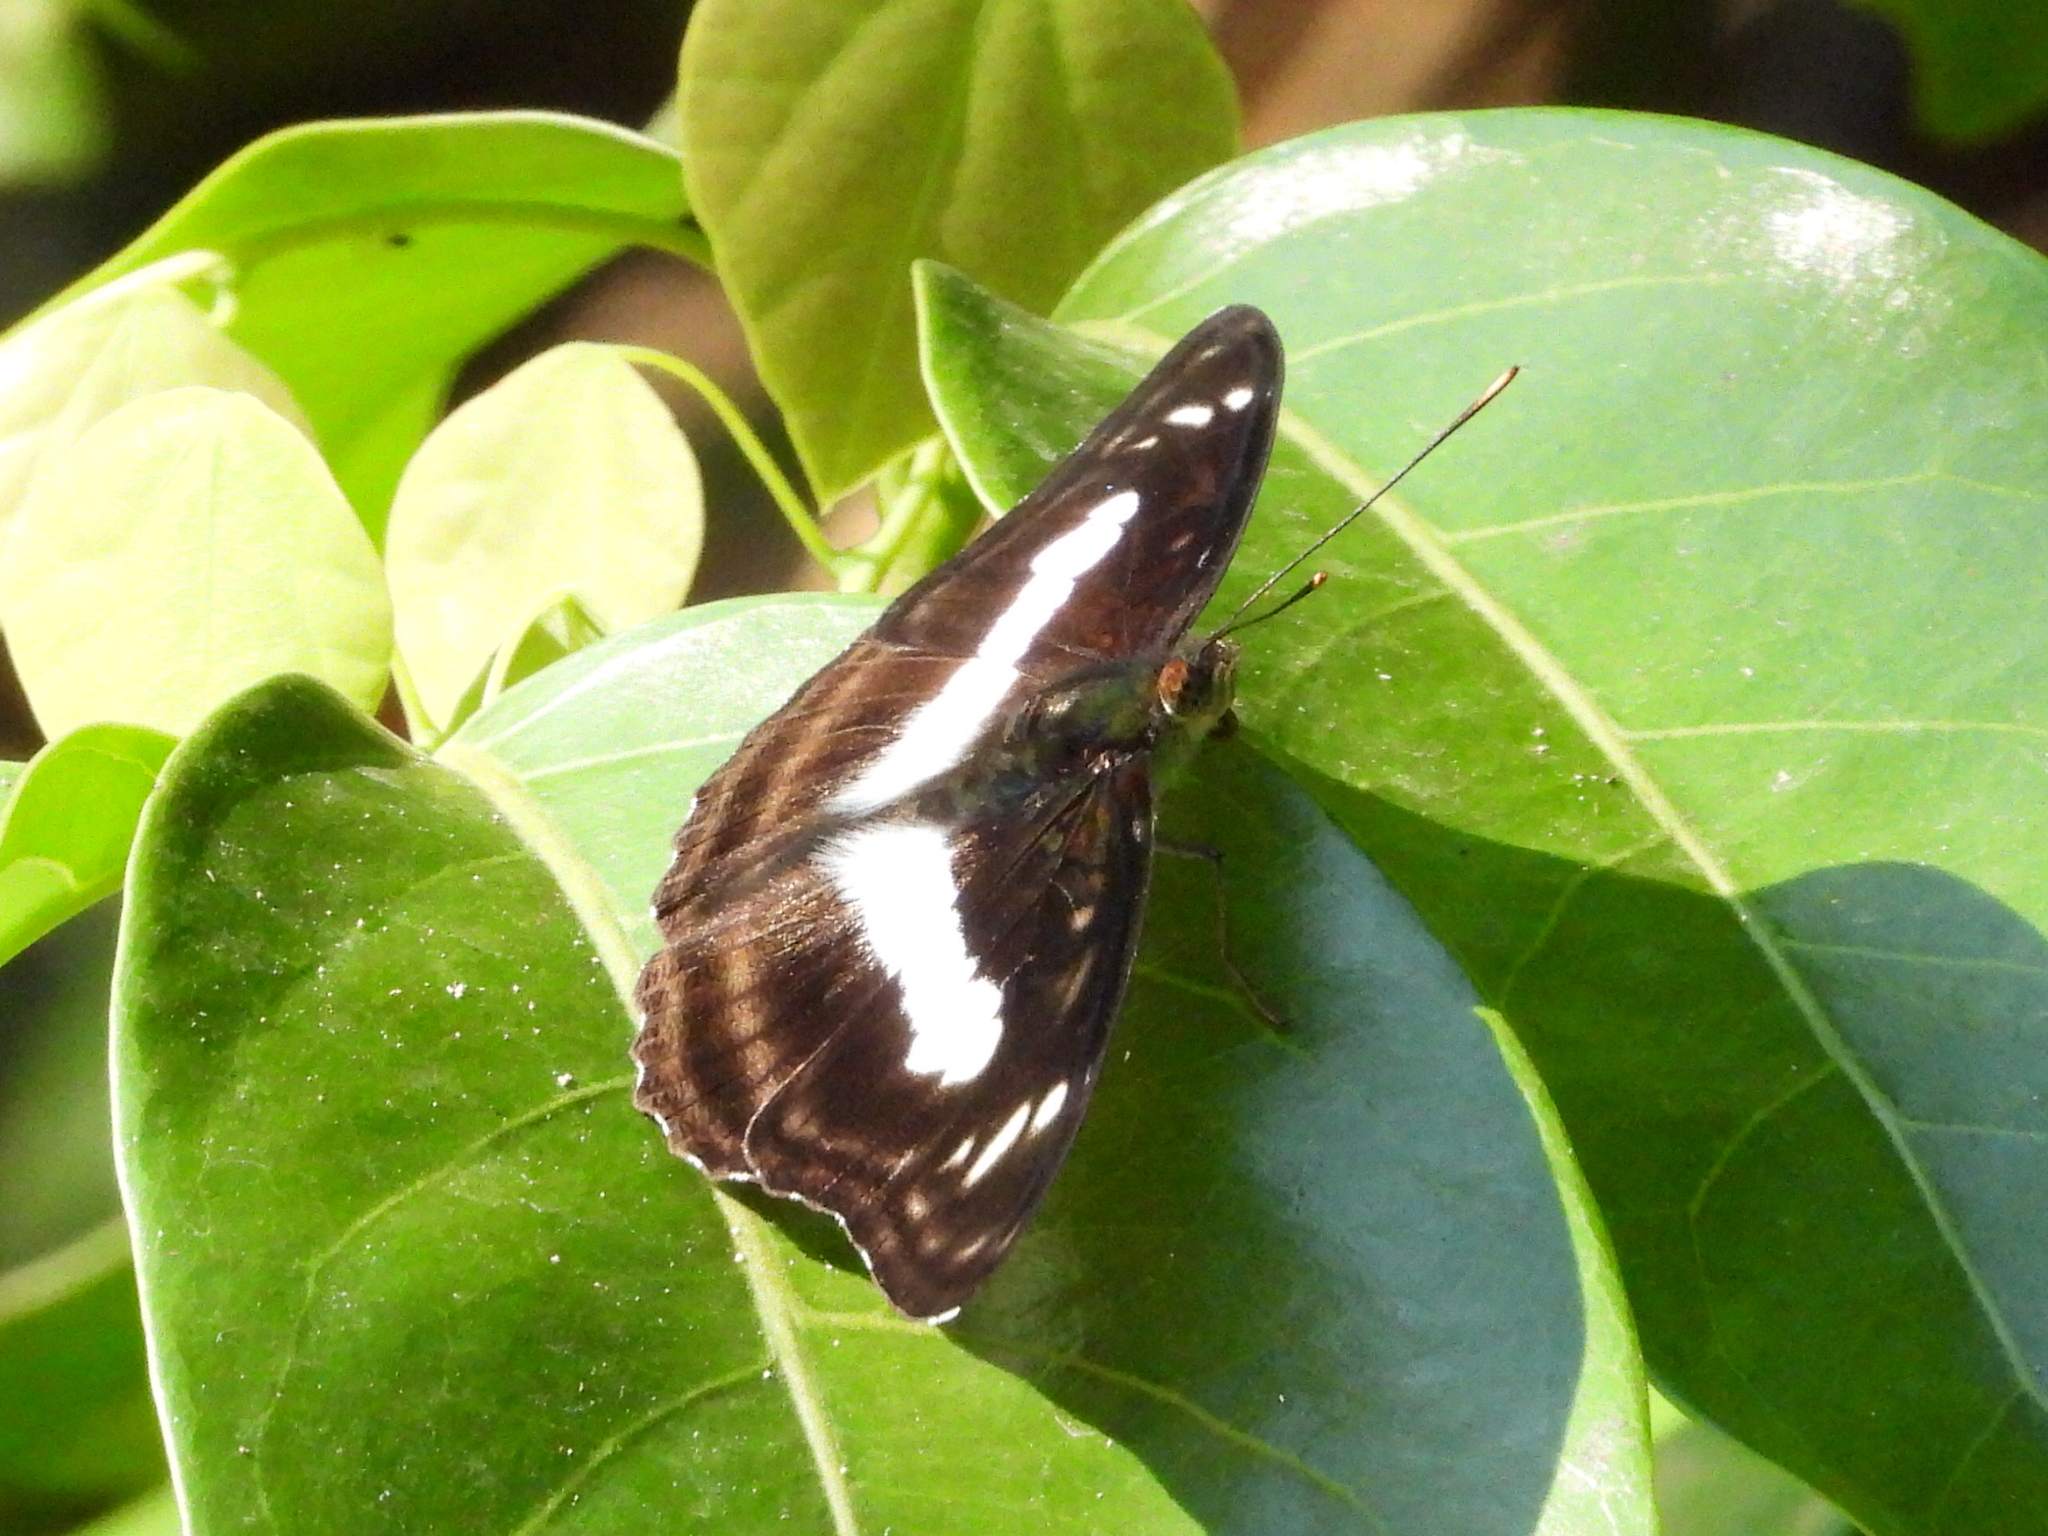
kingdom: Animalia
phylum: Arthropoda
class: Insecta
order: Lepidoptera
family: Nymphalidae
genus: Parathyma
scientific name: Parathyma selenophora
